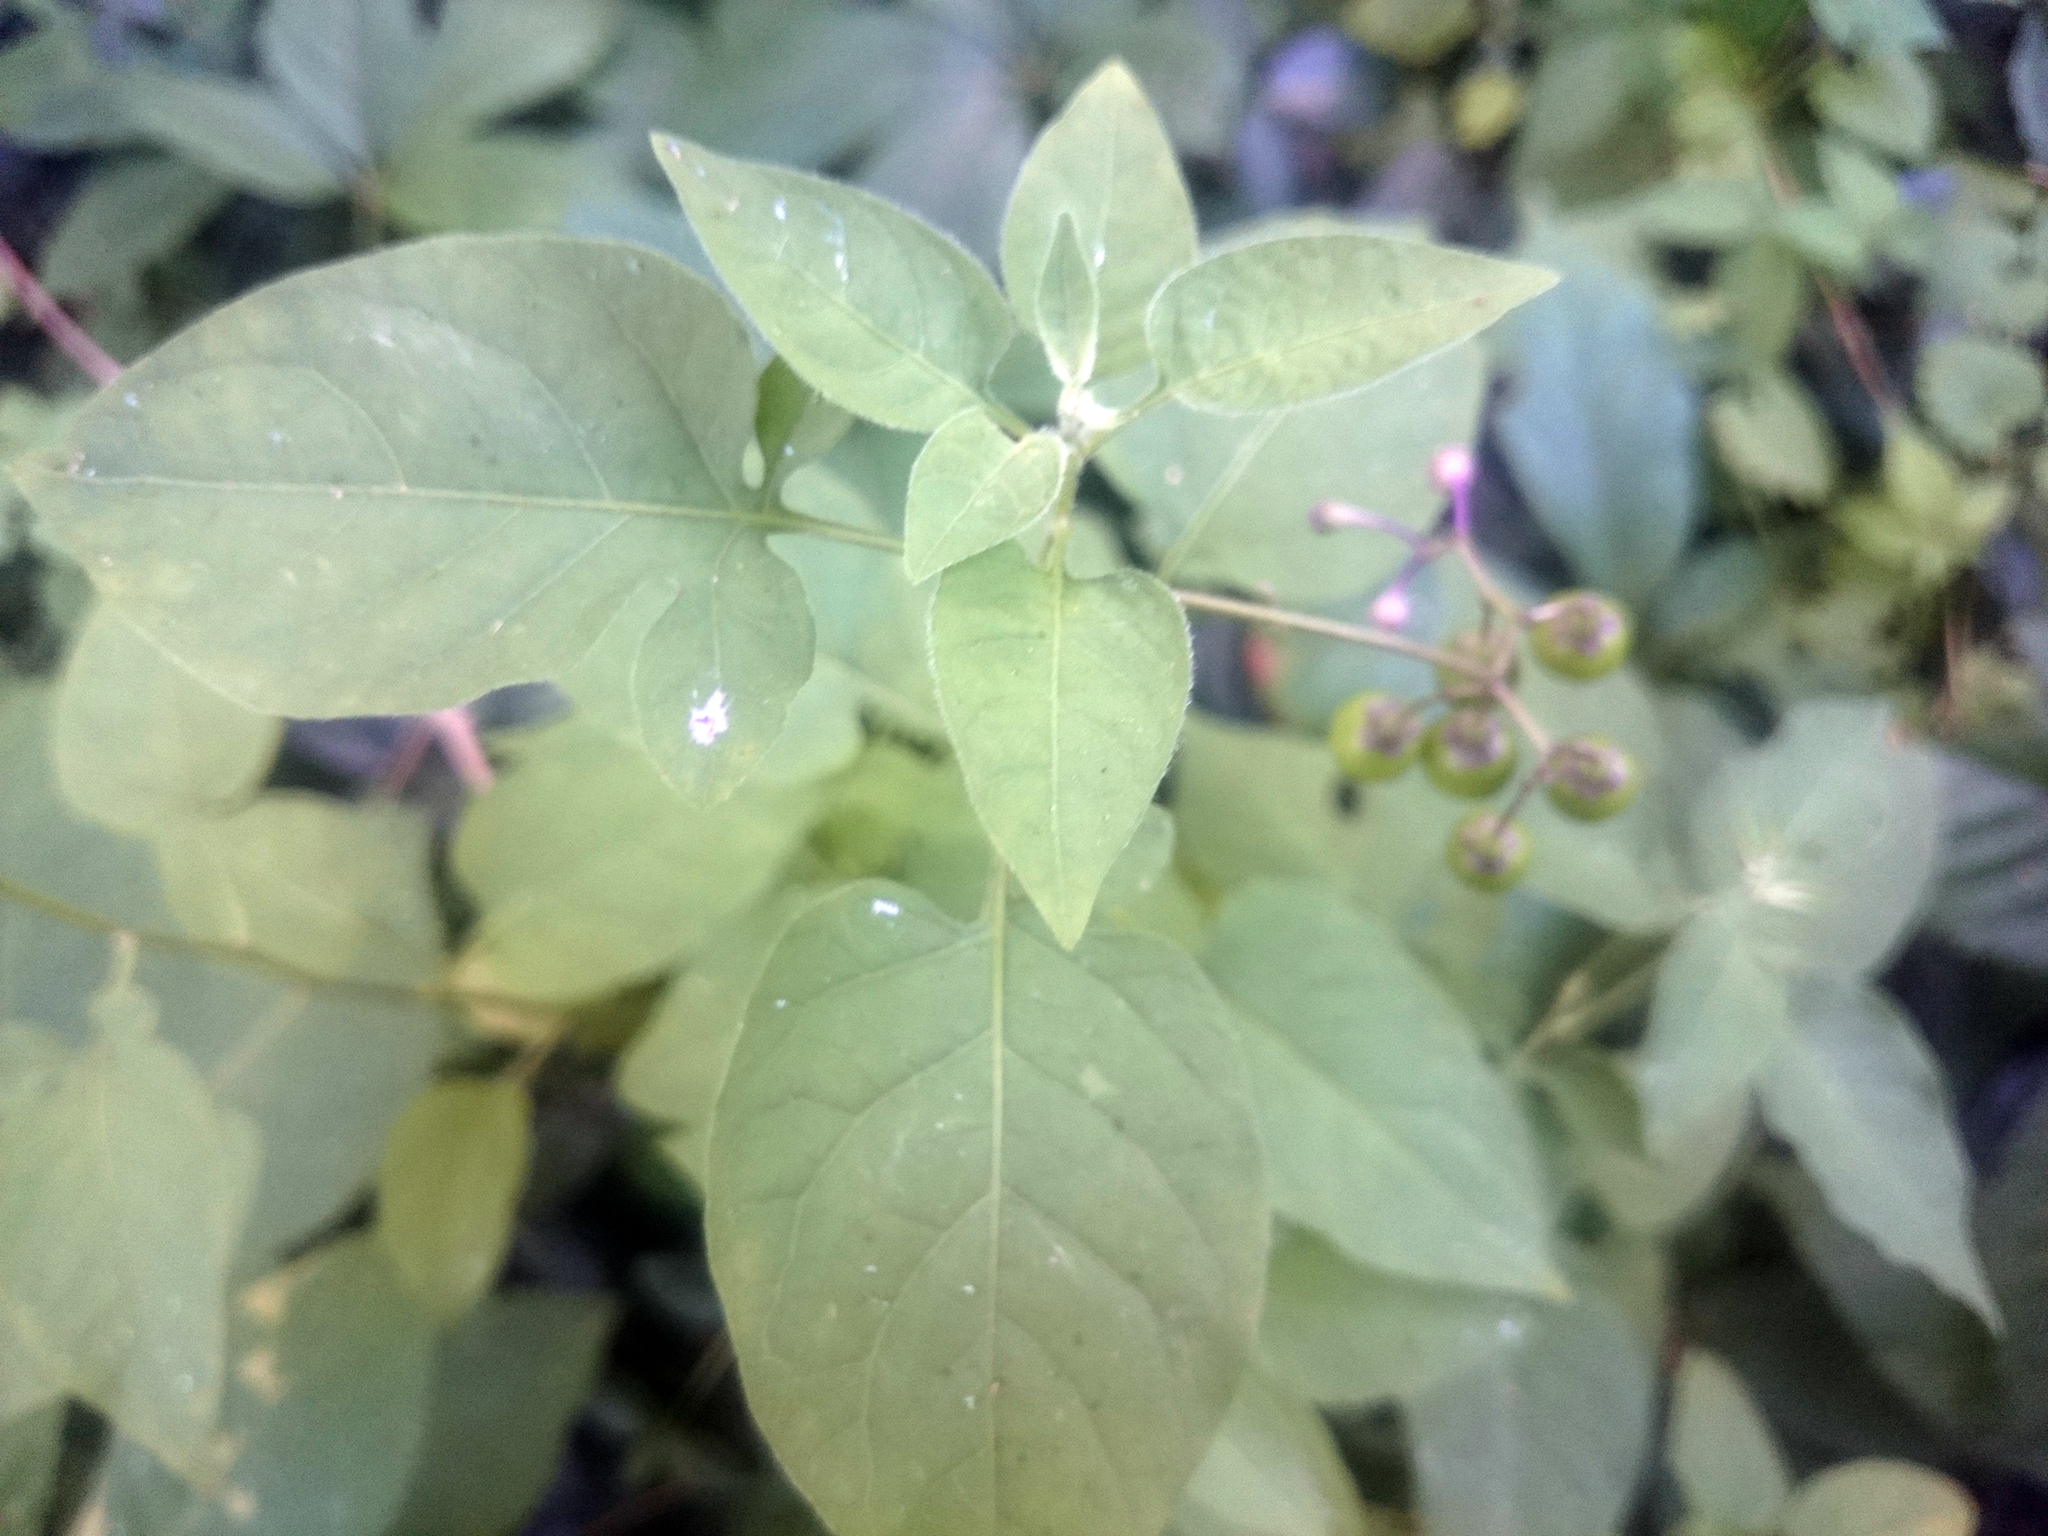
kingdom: Plantae
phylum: Tracheophyta
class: Magnoliopsida
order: Solanales
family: Solanaceae
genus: Solanum
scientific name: Solanum dulcamara
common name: Climbing nightshade
